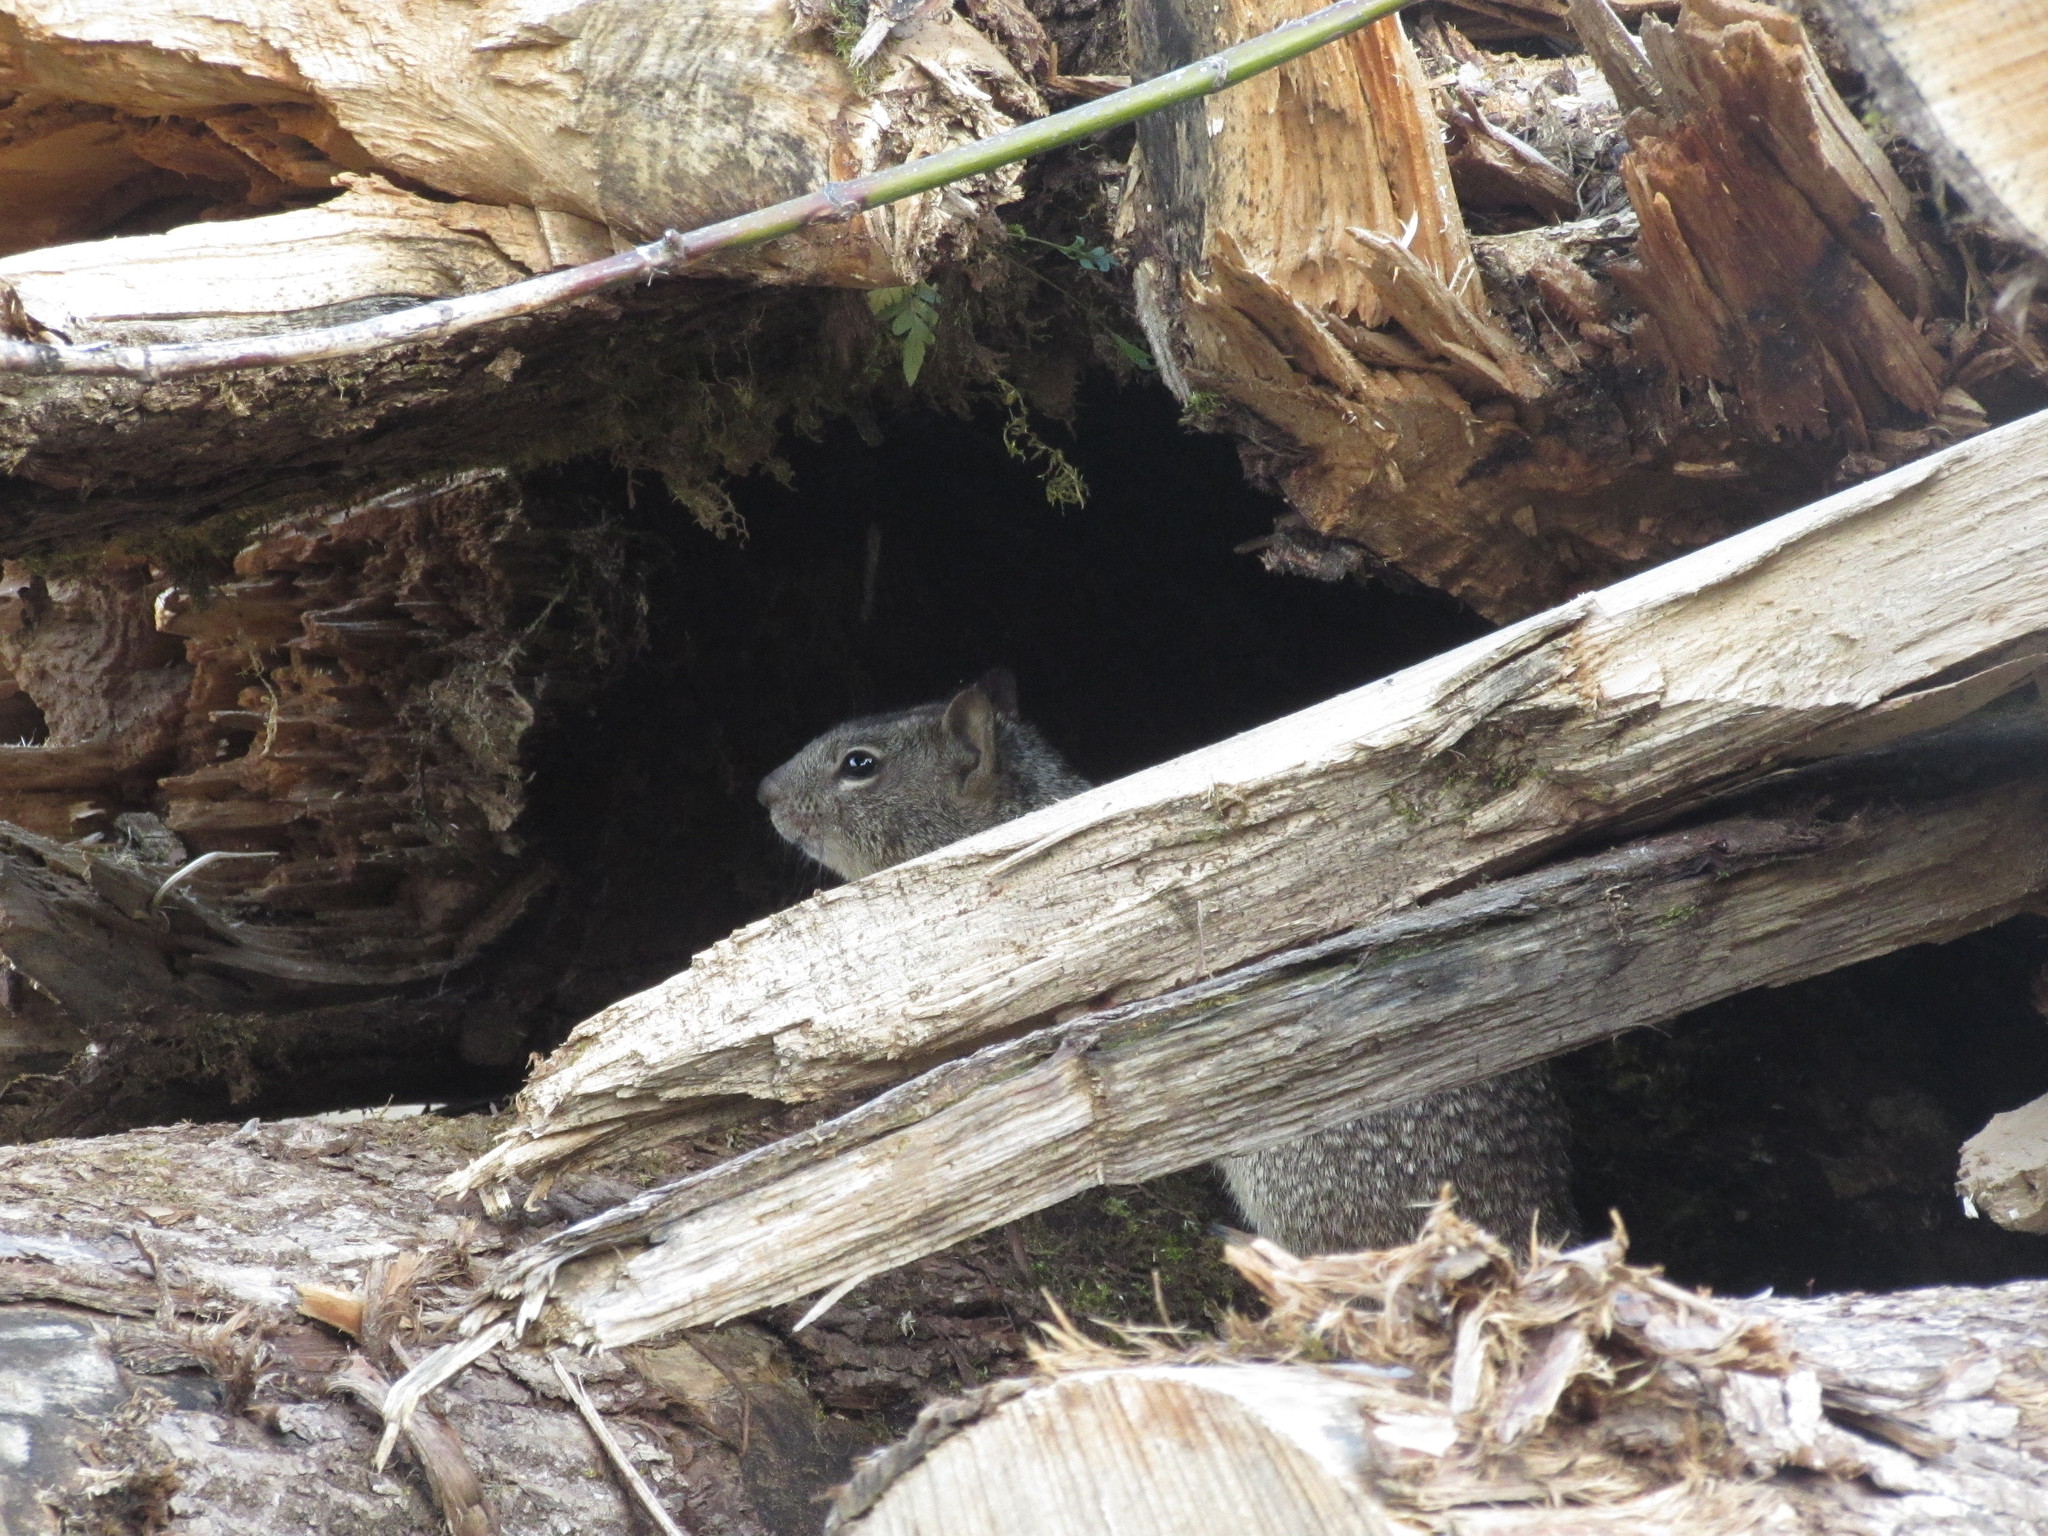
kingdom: Animalia
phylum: Chordata
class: Mammalia
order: Rodentia
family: Sciuridae
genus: Otospermophilus
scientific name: Otospermophilus beecheyi
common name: California ground squirrel
